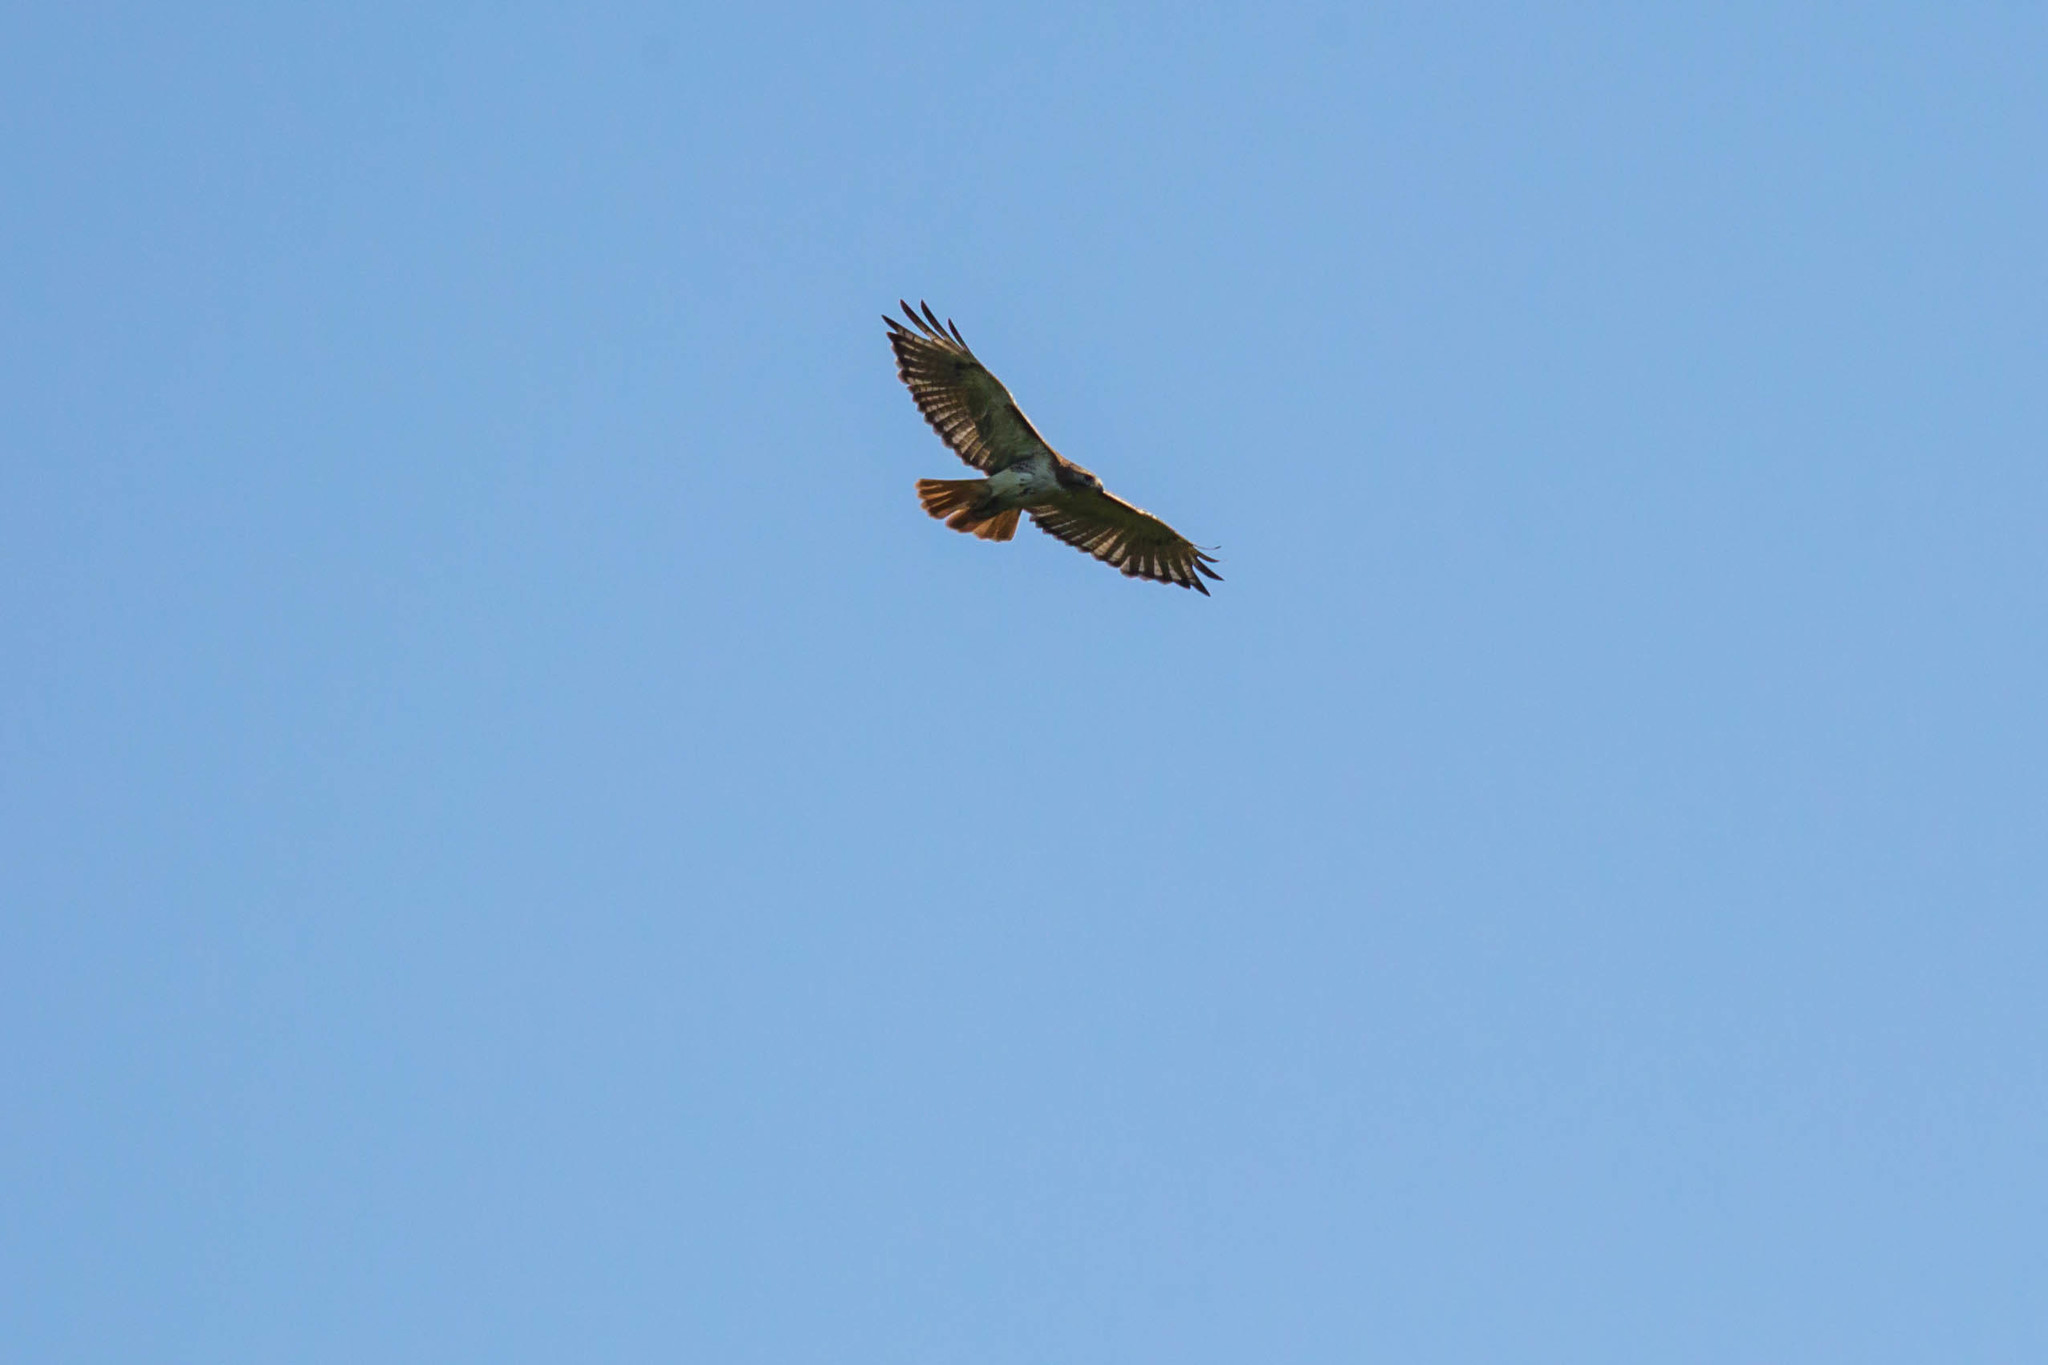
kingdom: Animalia
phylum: Chordata
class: Aves
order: Accipitriformes
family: Accipitridae
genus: Buteo
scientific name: Buteo jamaicensis
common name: Red-tailed hawk
